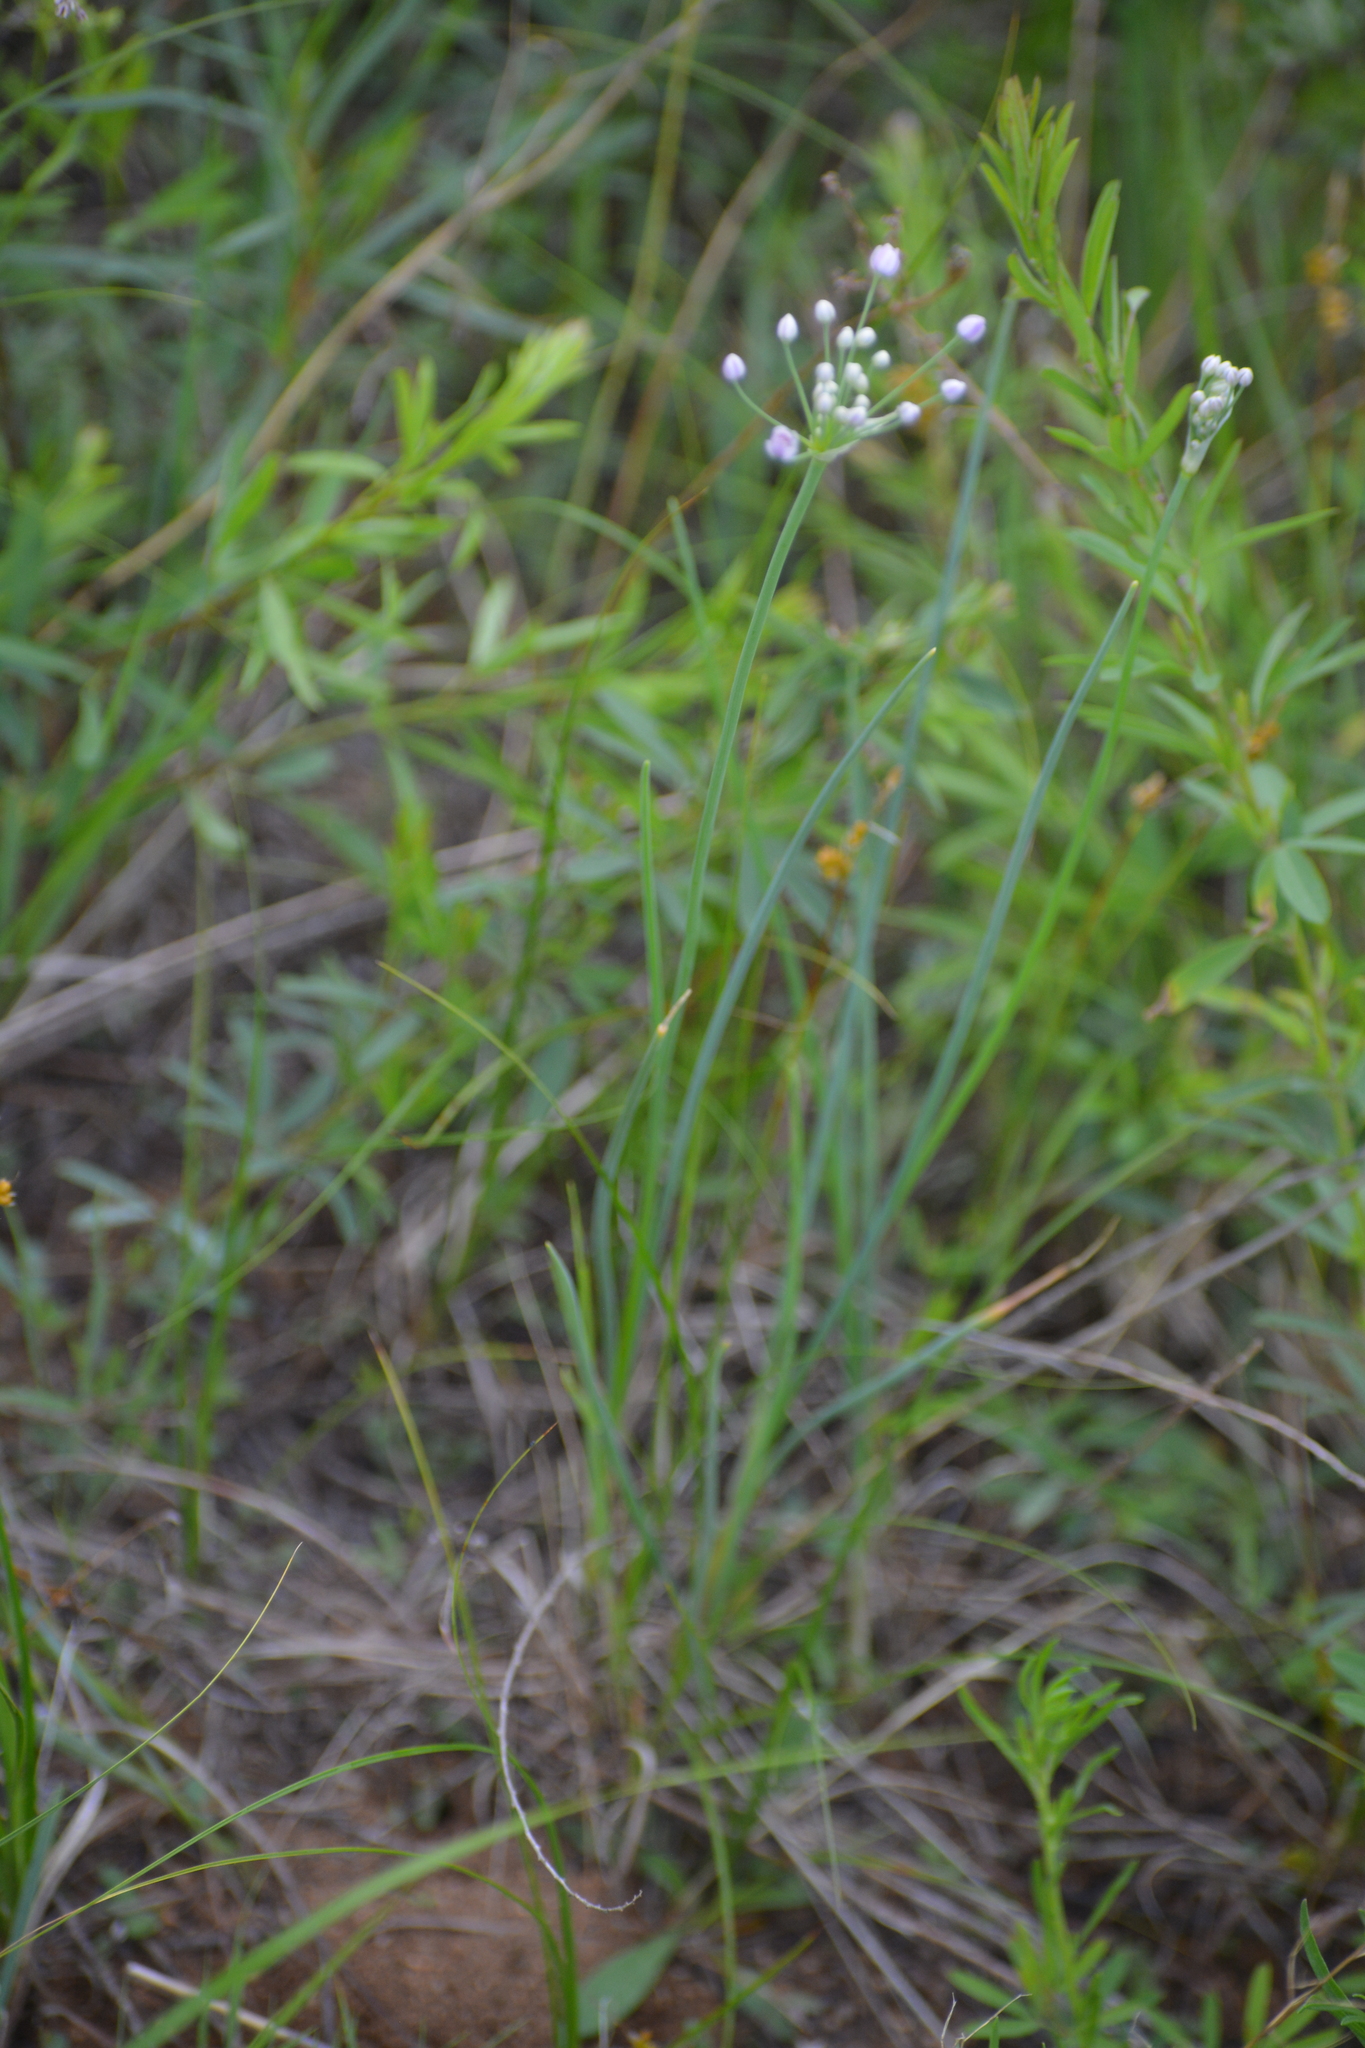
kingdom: Plantae
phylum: Tracheophyta
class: Liliopsida
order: Asparagales
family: Amaryllidaceae
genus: Allium
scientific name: Allium anisopodium
